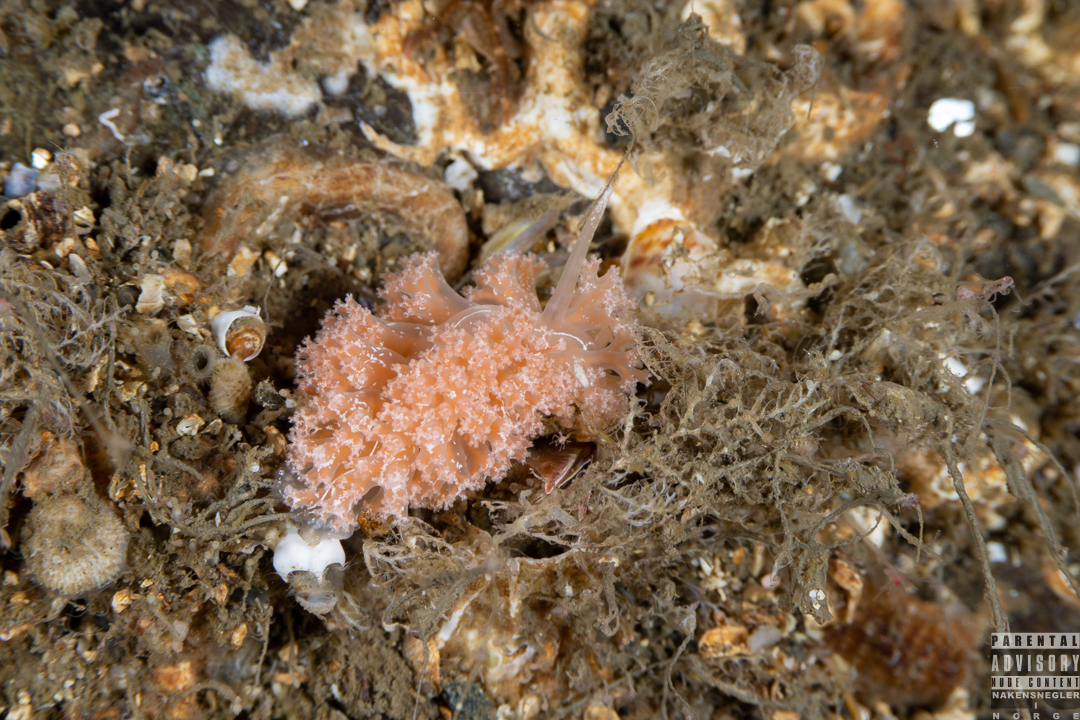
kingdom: Animalia
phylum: Mollusca
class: Gastropoda
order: Nudibranchia
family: Heroidae
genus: Hero
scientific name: Hero formosa
